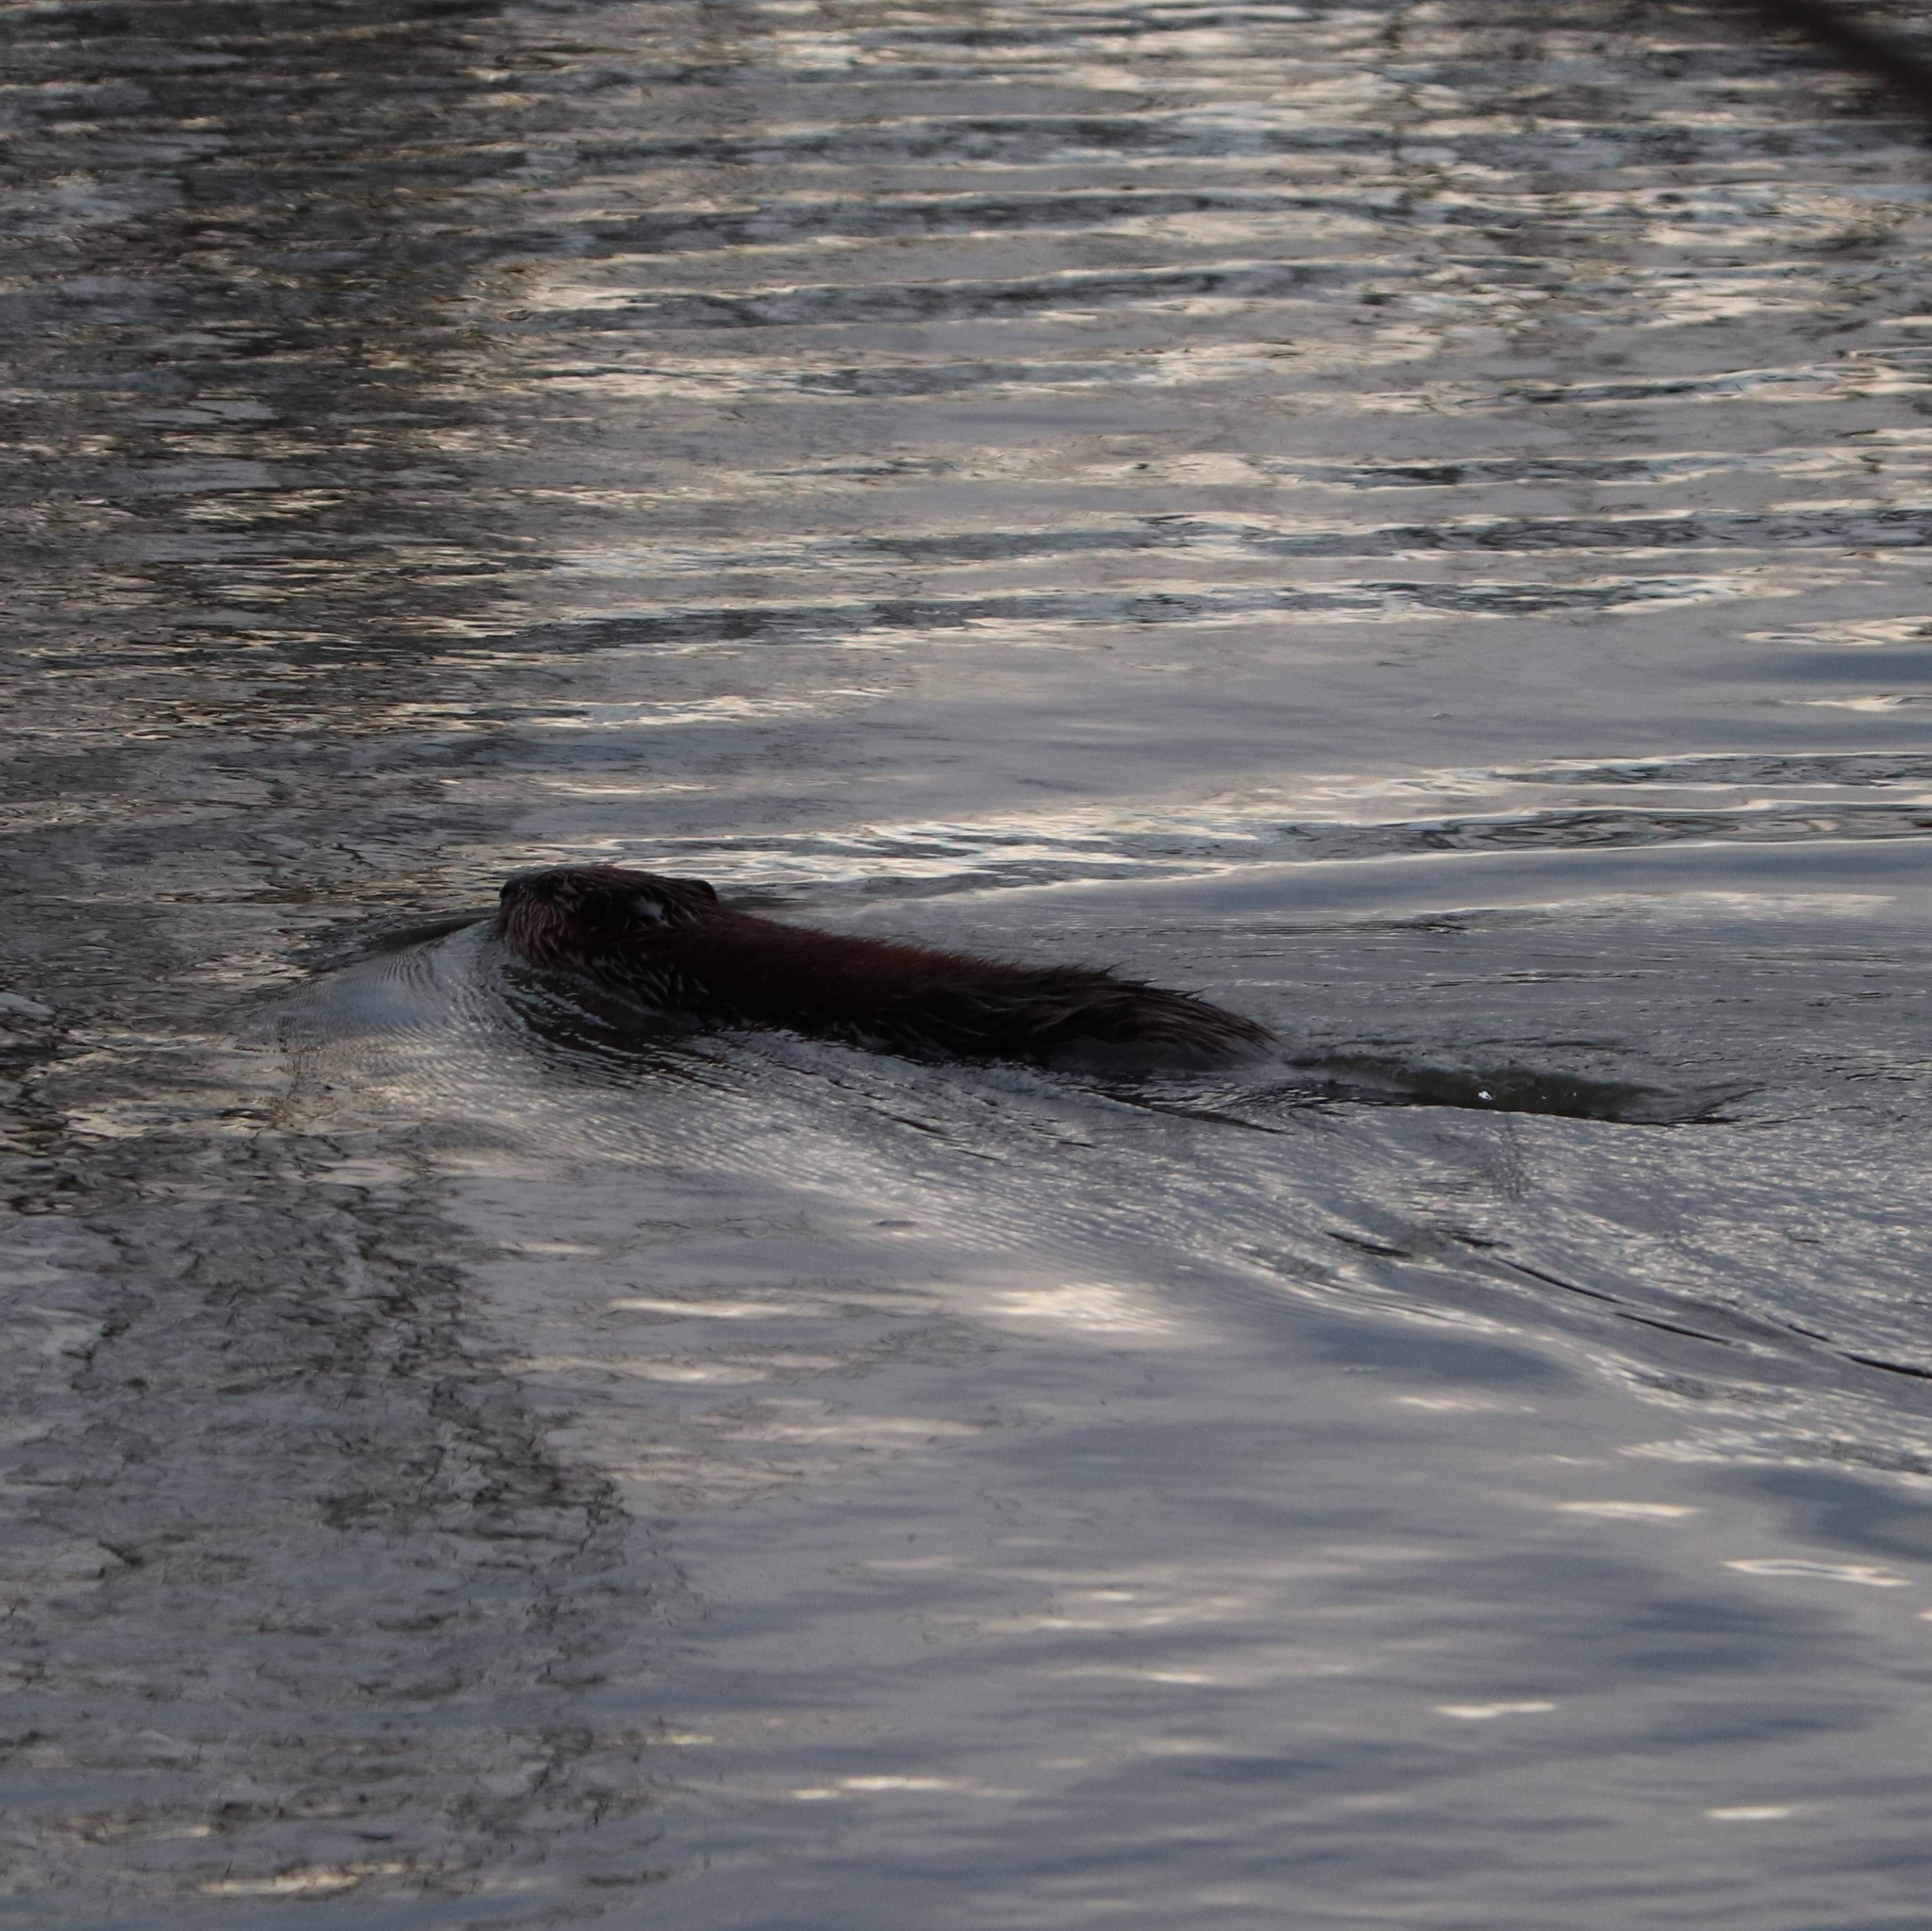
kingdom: Animalia
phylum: Chordata
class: Mammalia
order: Rodentia
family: Castoridae
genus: Castor
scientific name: Castor canadensis
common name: American beaver
